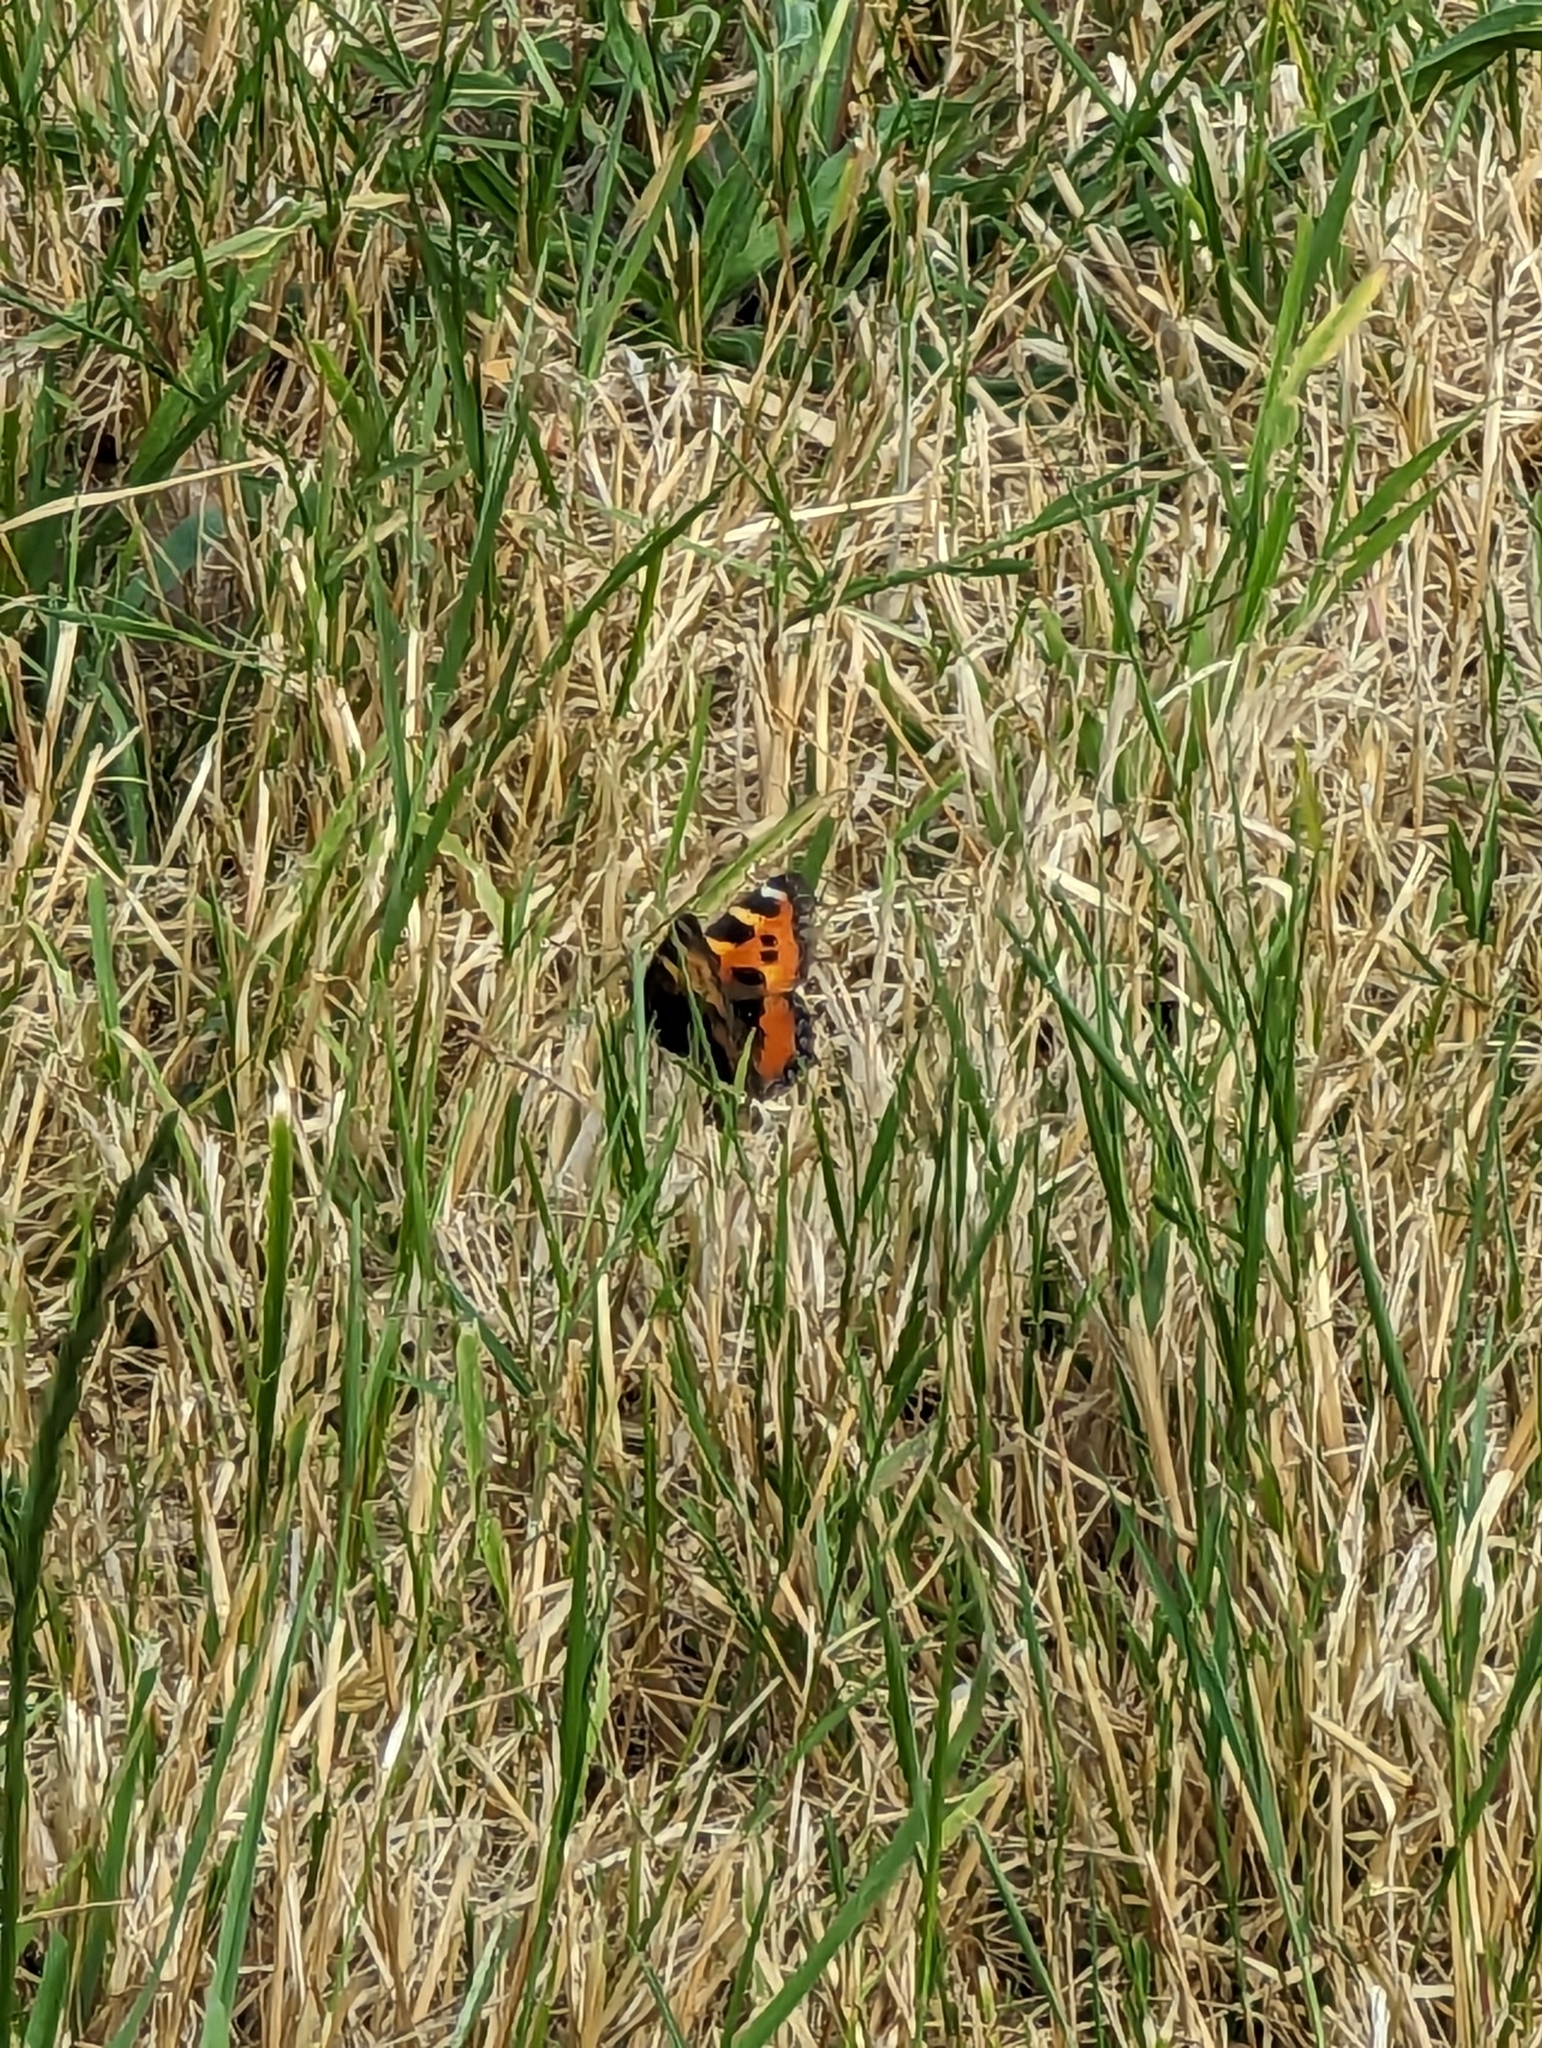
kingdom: Animalia
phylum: Arthropoda
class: Insecta
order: Lepidoptera
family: Nymphalidae
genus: Aglais
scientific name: Aglais urticae
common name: Small tortoiseshell
